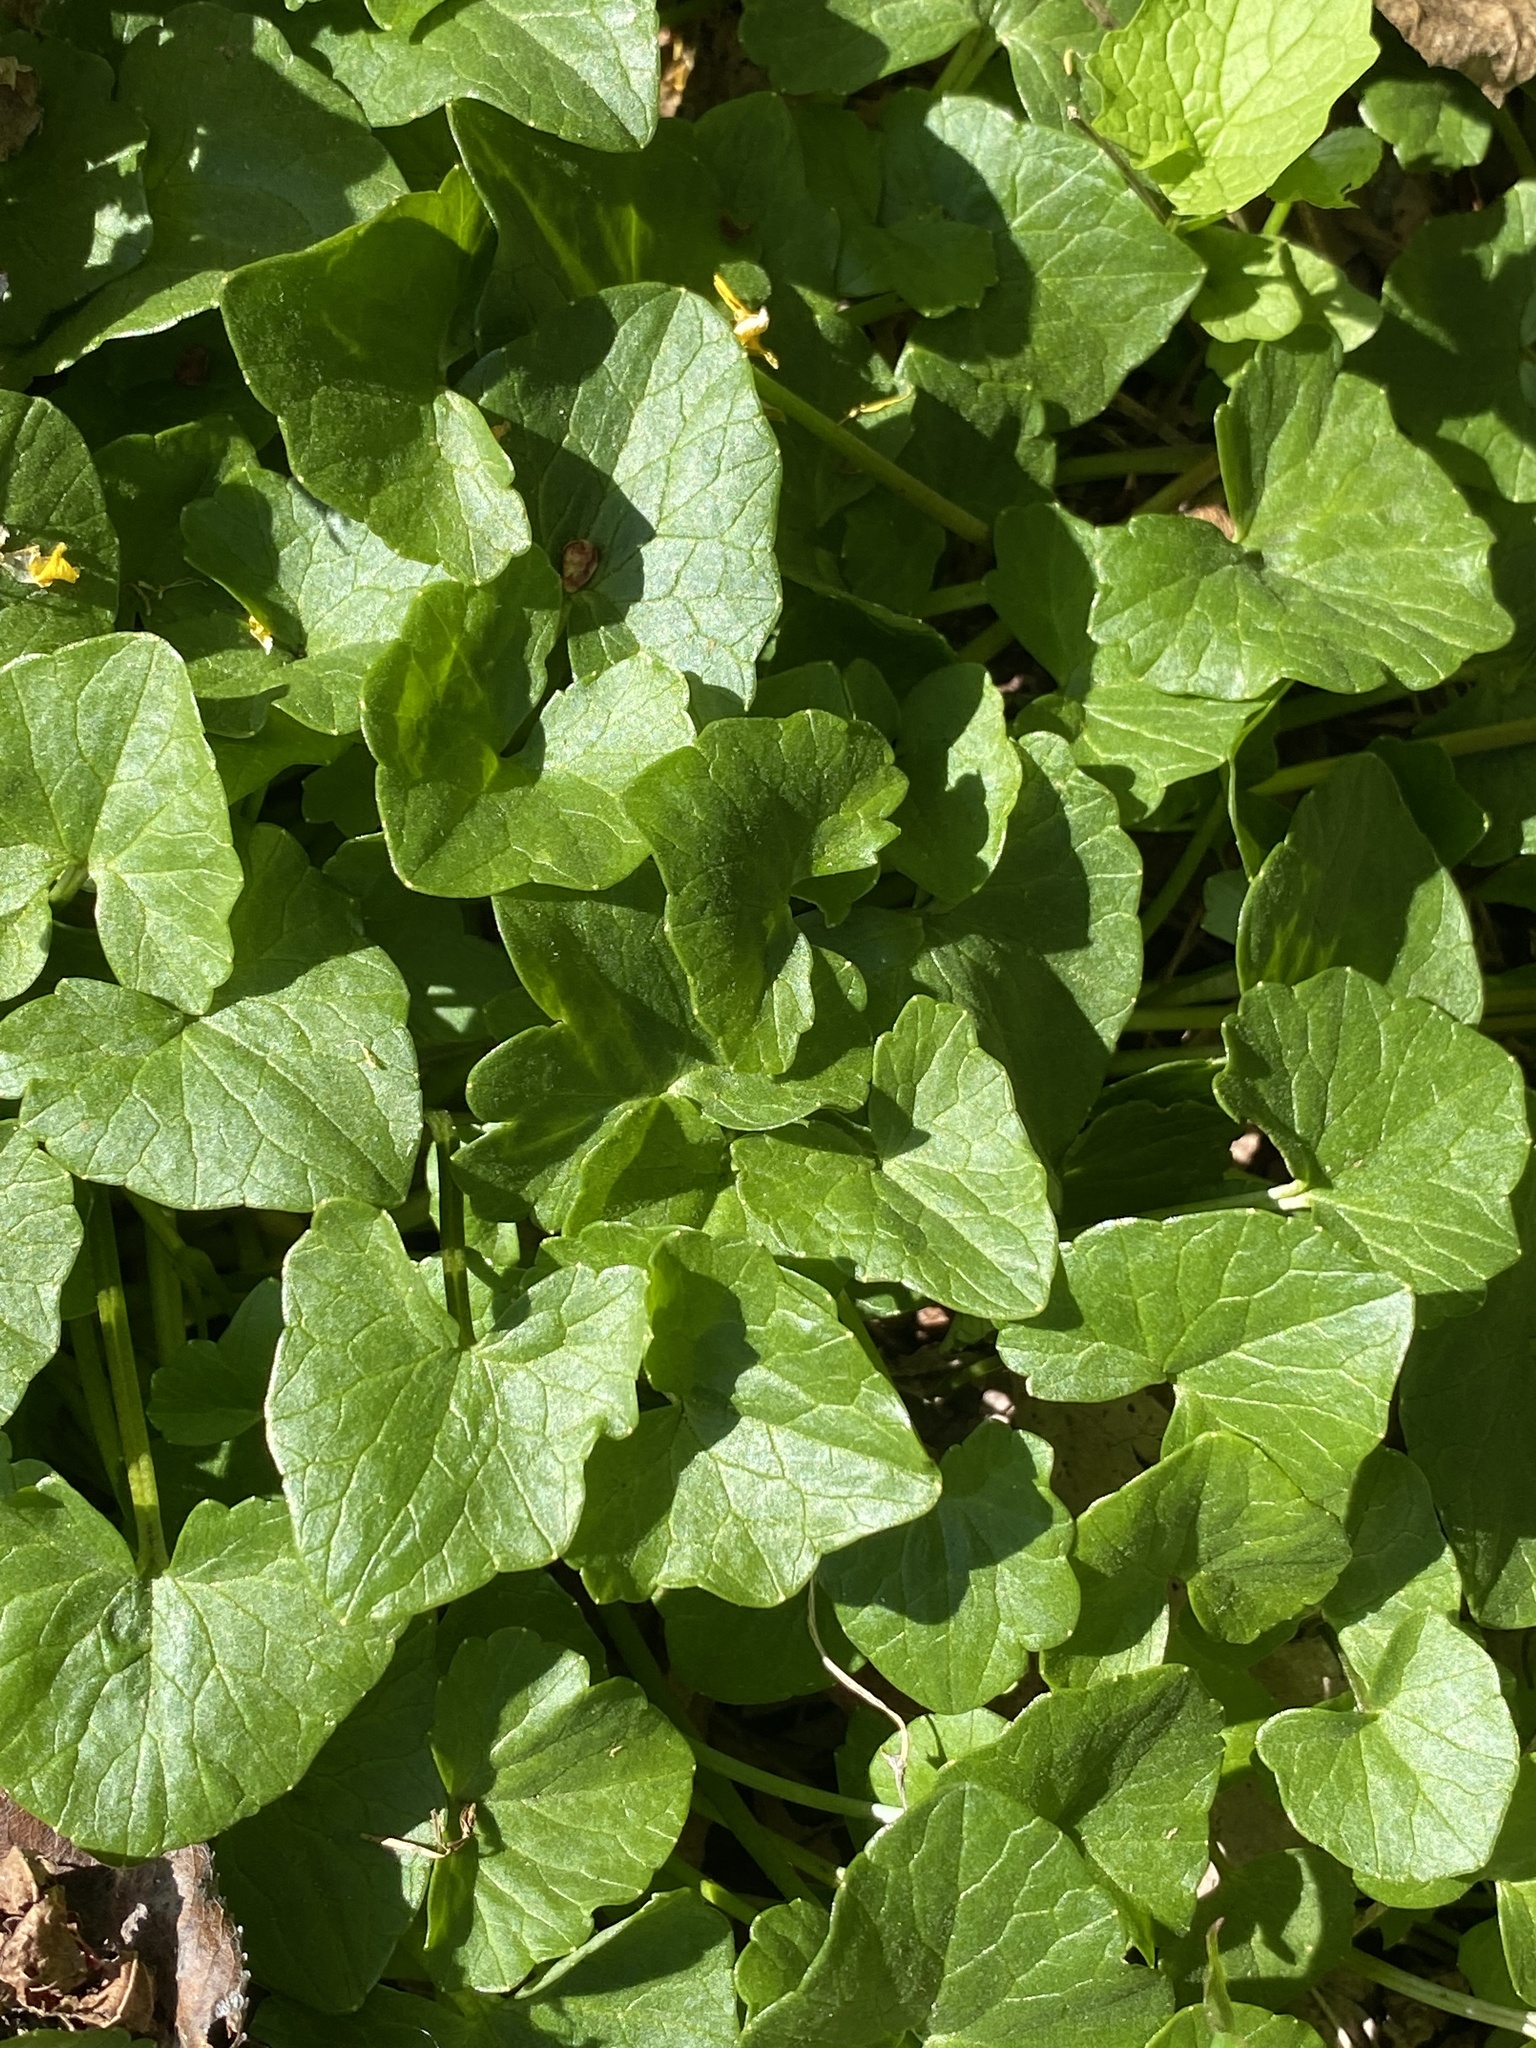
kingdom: Plantae
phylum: Tracheophyta
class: Magnoliopsida
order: Ranunculales
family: Ranunculaceae
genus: Ficaria
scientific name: Ficaria verna
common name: Lesser celandine
